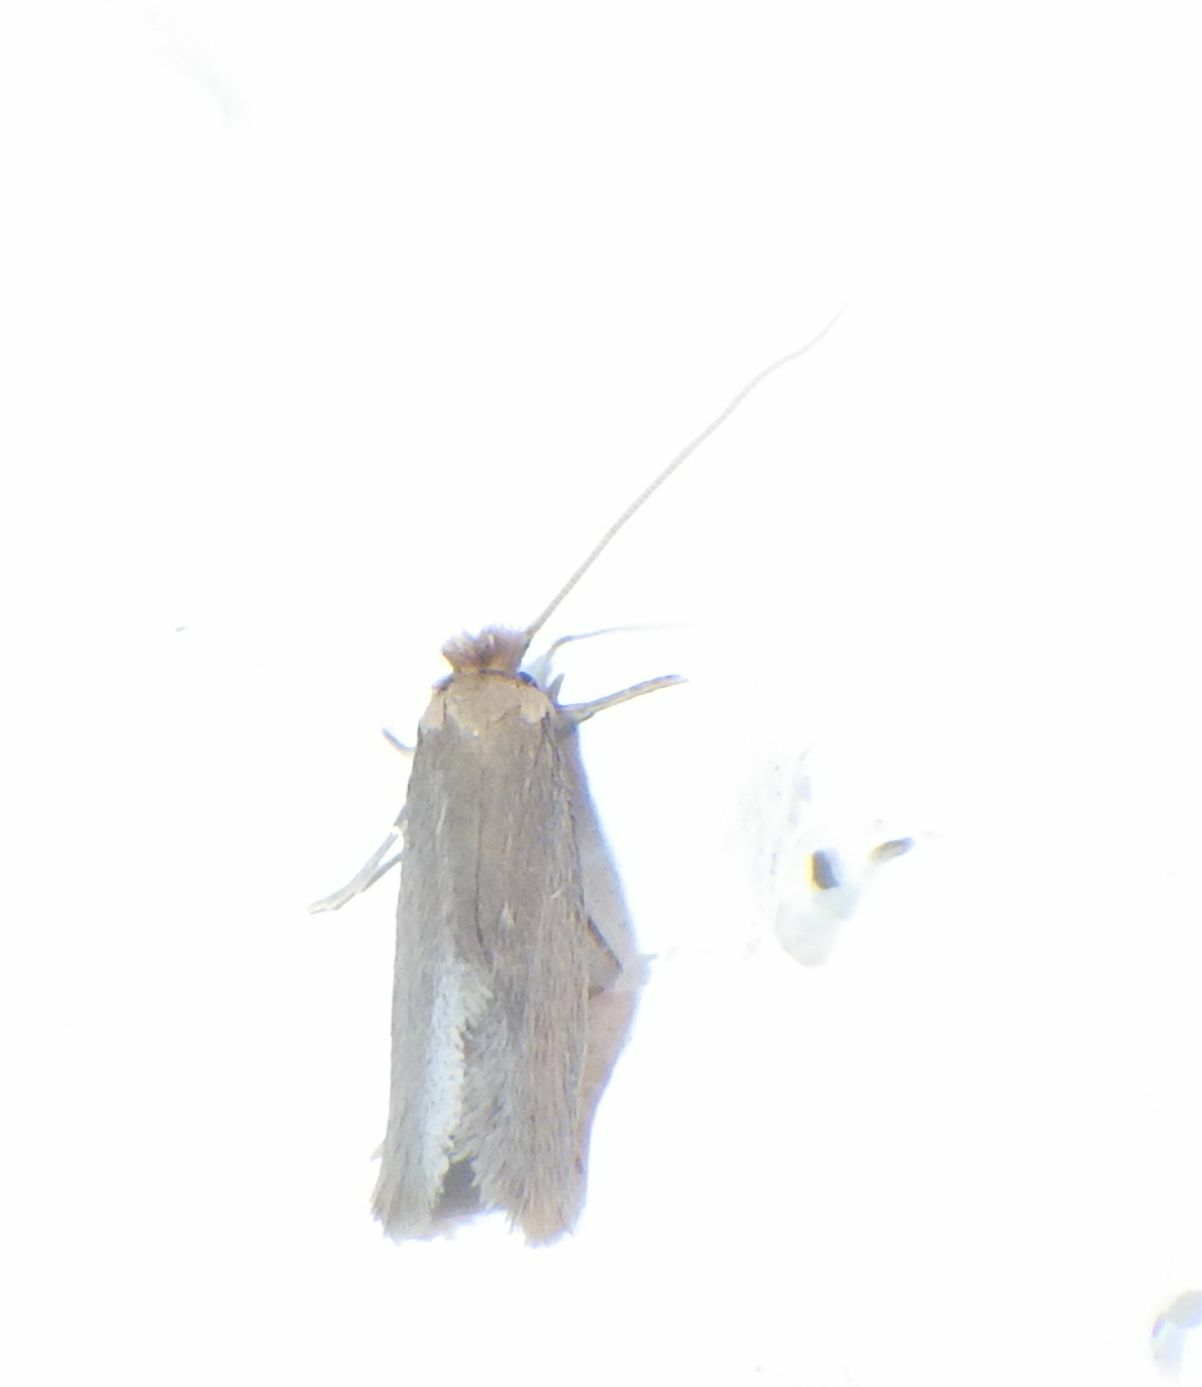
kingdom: Animalia
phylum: Arthropoda
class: Insecta
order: Lepidoptera
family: Tineidae
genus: Perissomastix
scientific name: Perissomastix crassicornella
